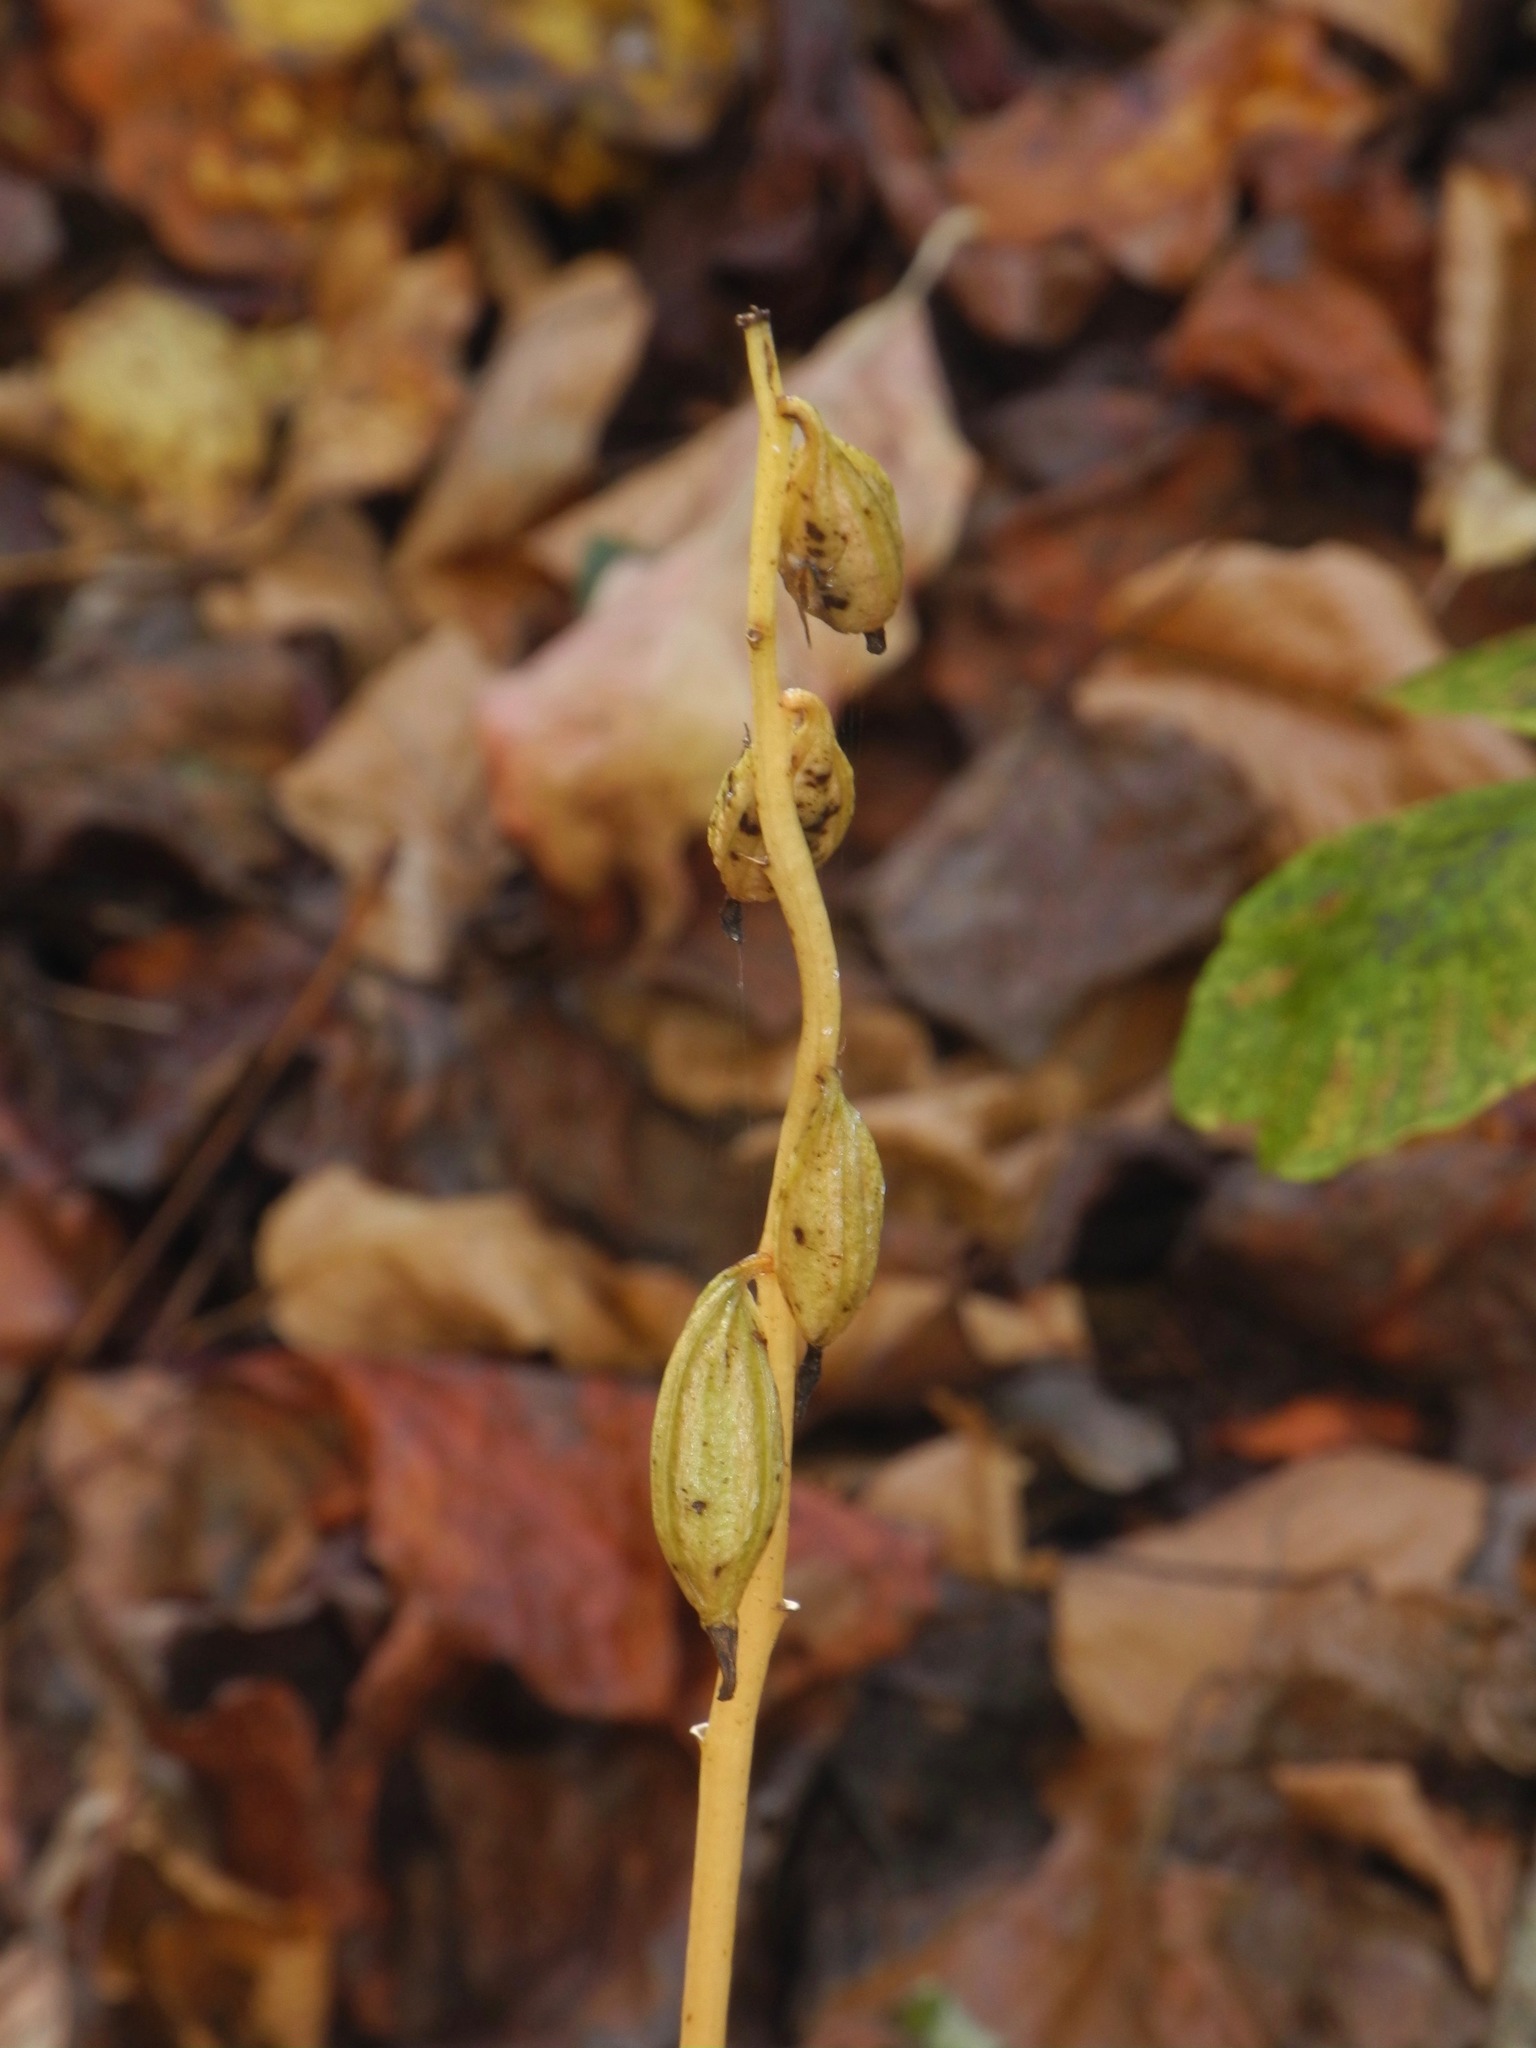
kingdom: Plantae
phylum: Tracheophyta
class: Liliopsida
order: Asparagales
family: Orchidaceae
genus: Aplectrum
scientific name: Aplectrum hyemale
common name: Adam-and-eve
